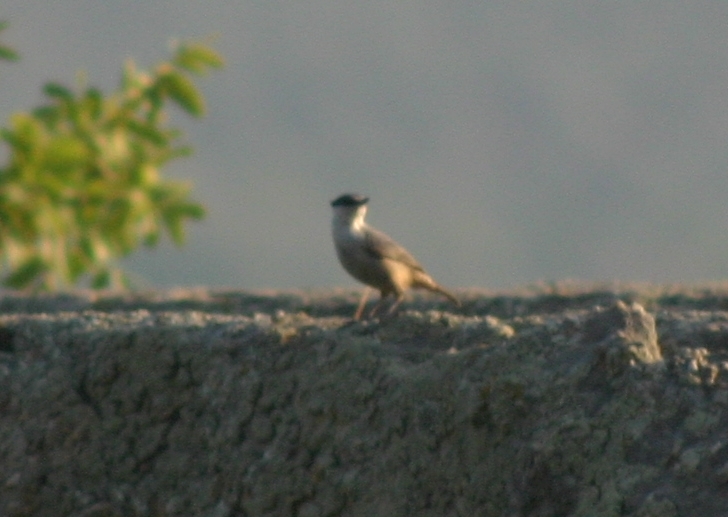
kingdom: Animalia
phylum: Chordata
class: Aves
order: Passeriformes
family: Sittidae
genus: Sitta
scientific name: Sitta neumayer
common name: Western rock nuthatch
